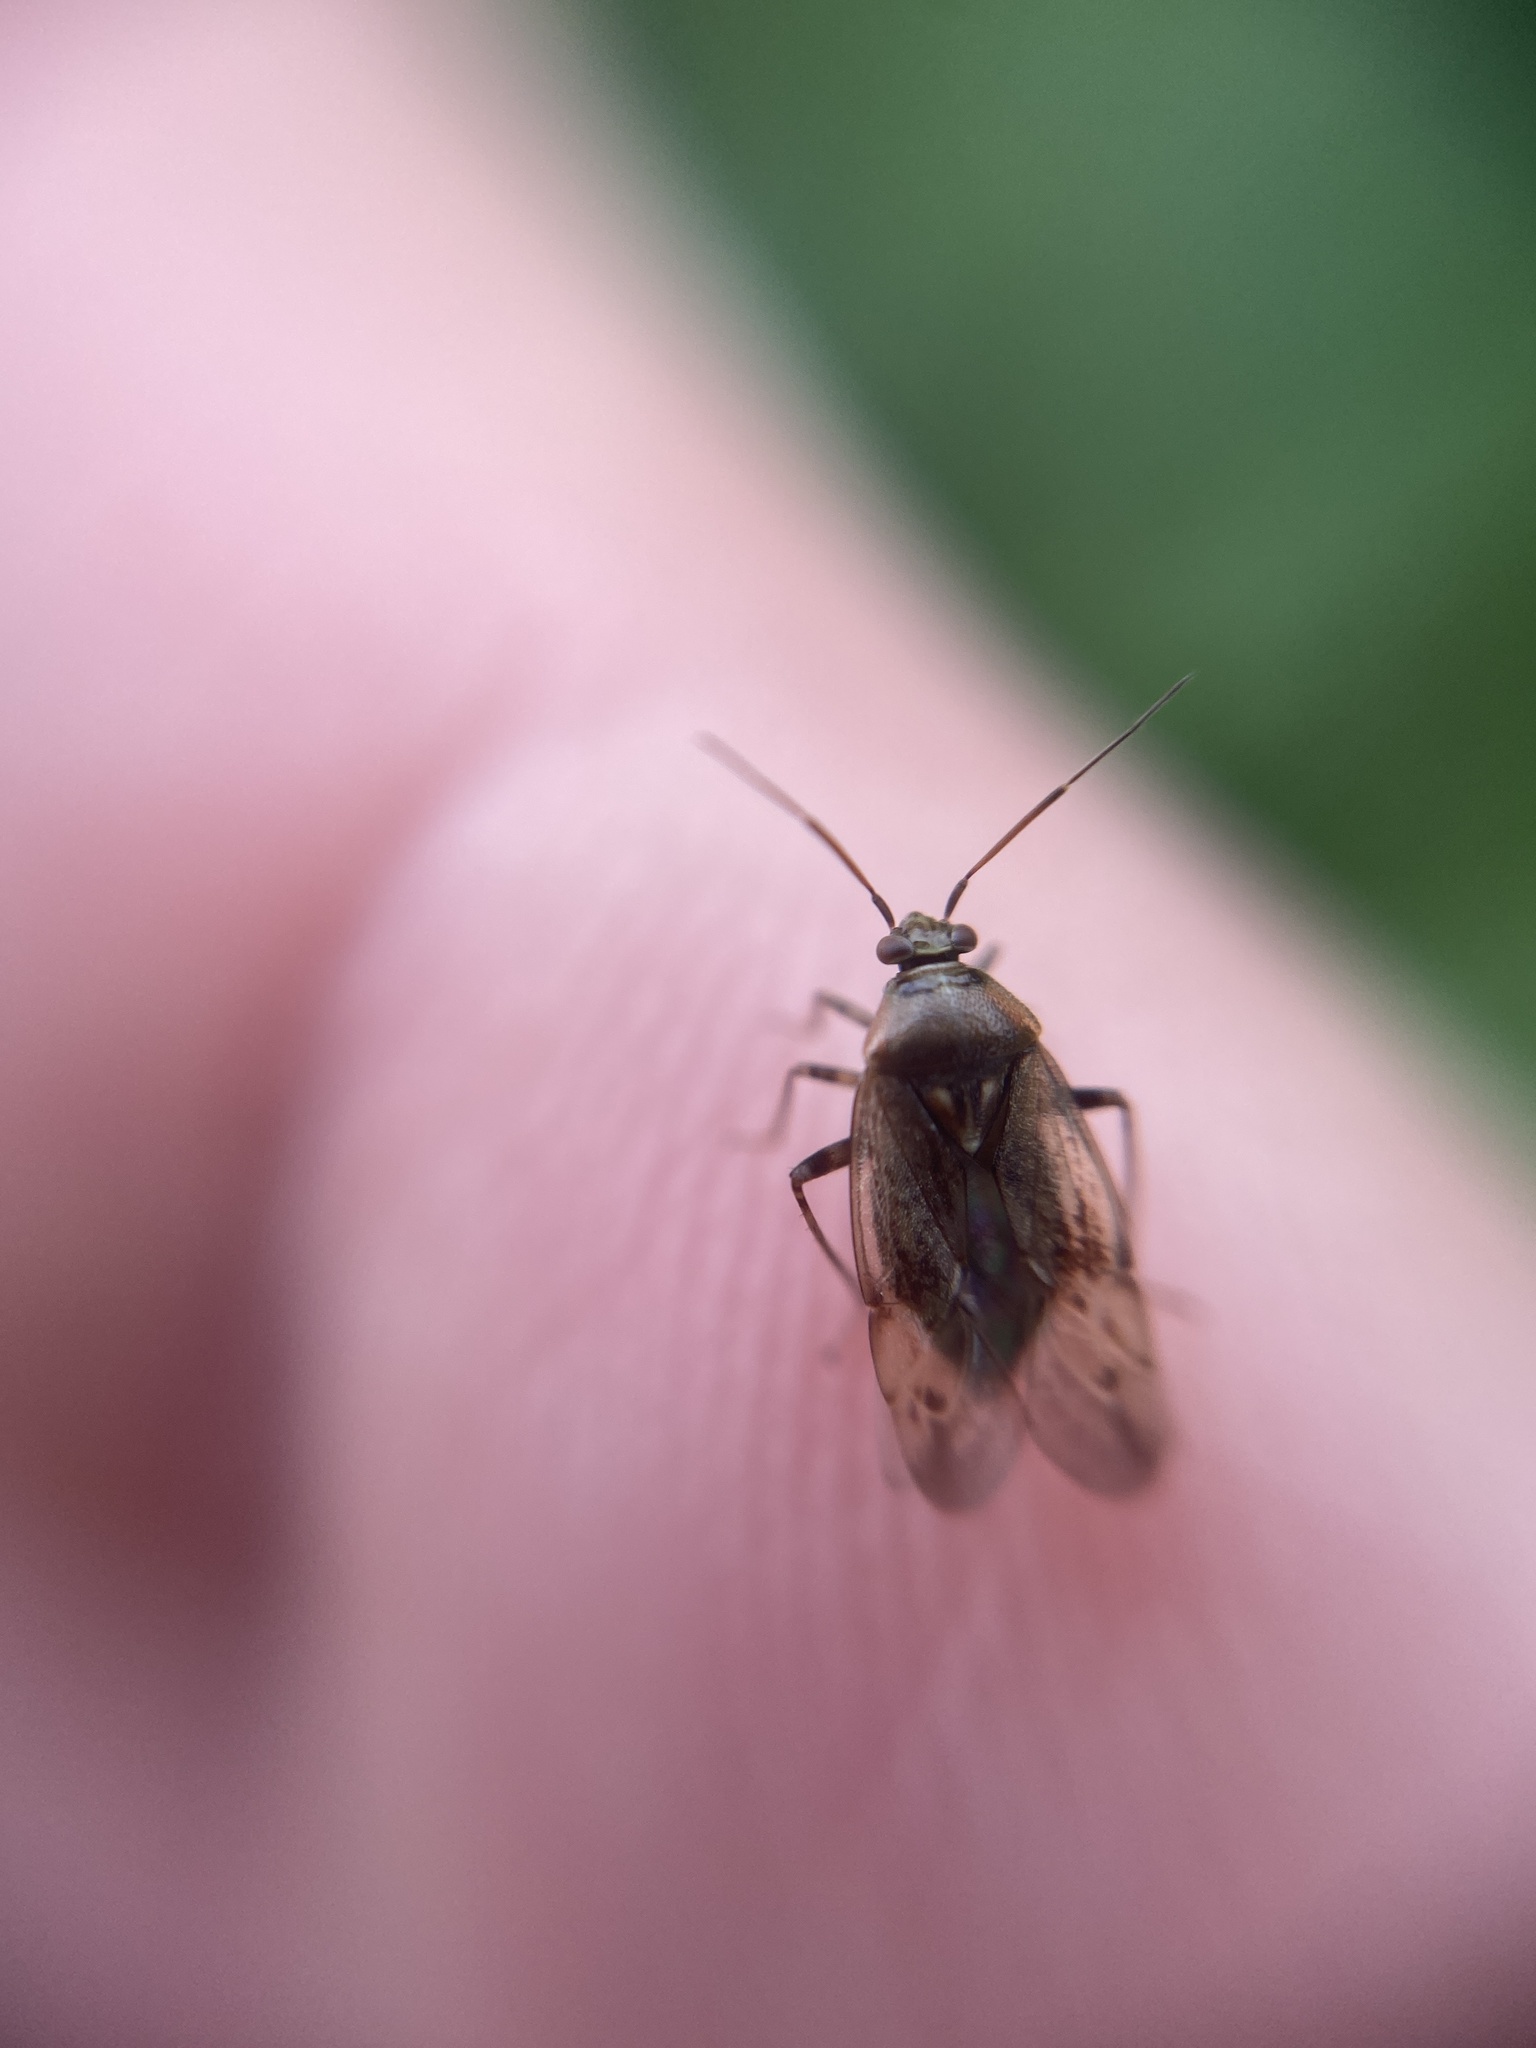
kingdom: Animalia
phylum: Arthropoda
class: Insecta
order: Hemiptera
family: Miridae
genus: Lygus
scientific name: Lygus rugulipennis
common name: European tarnished plant bug
